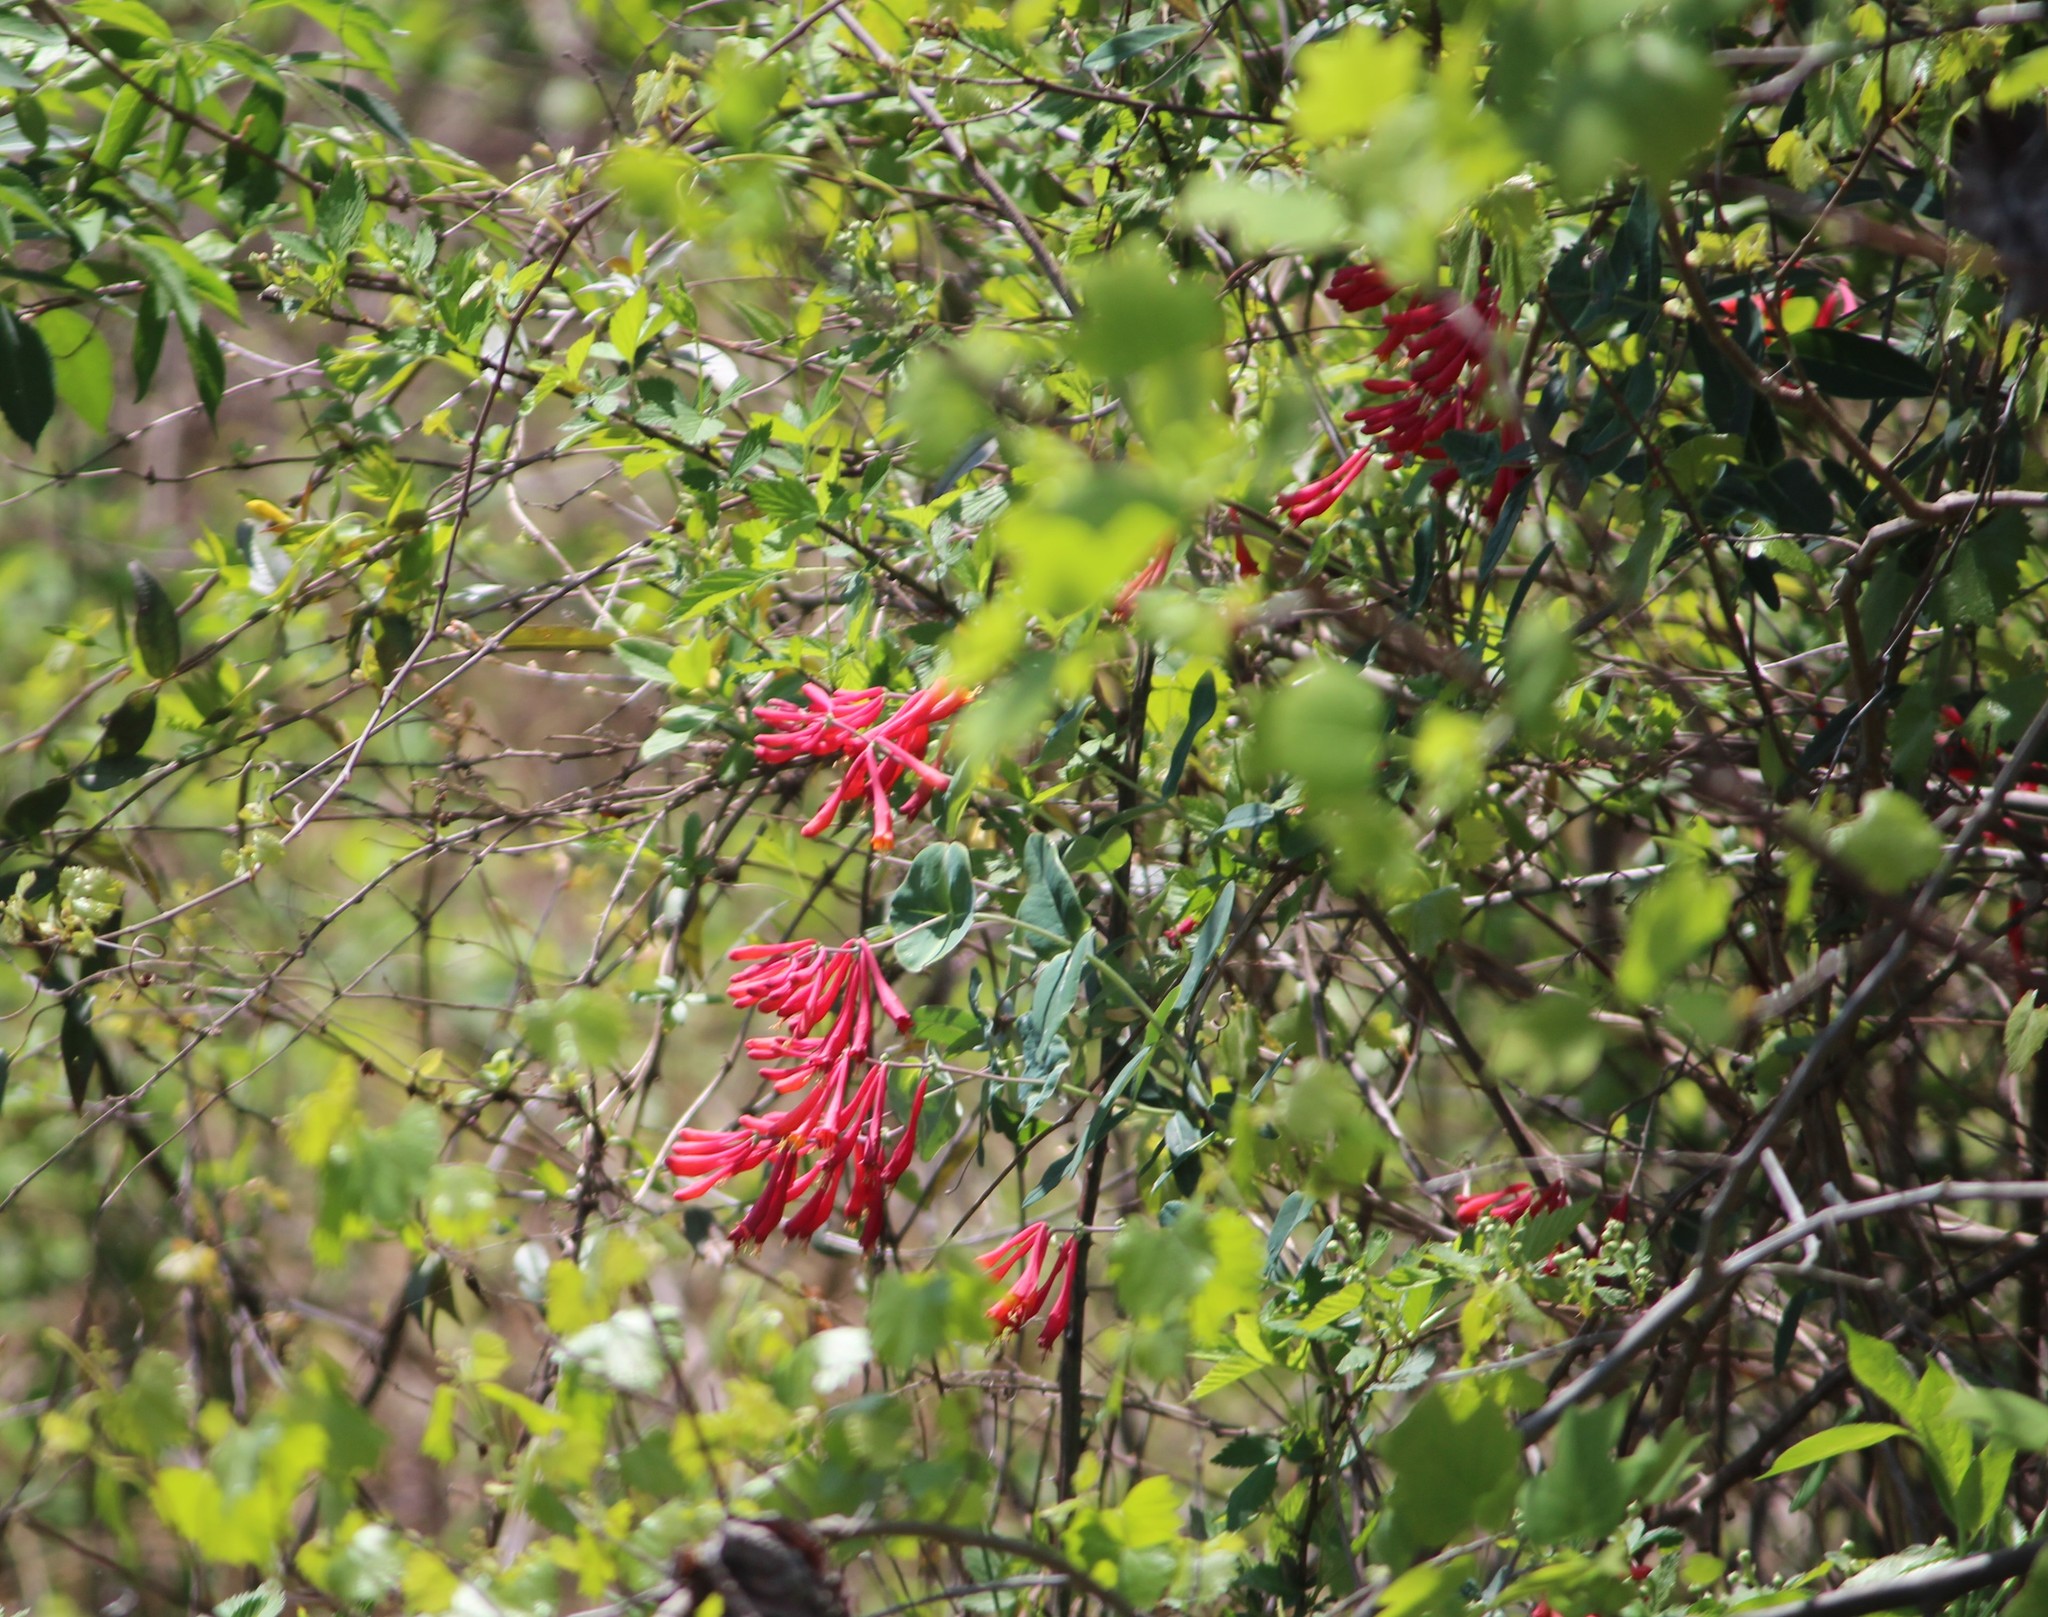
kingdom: Plantae
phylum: Tracheophyta
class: Magnoliopsida
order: Dipsacales
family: Caprifoliaceae
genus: Lonicera
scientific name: Lonicera sempervirens
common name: Coral honeysuckle
